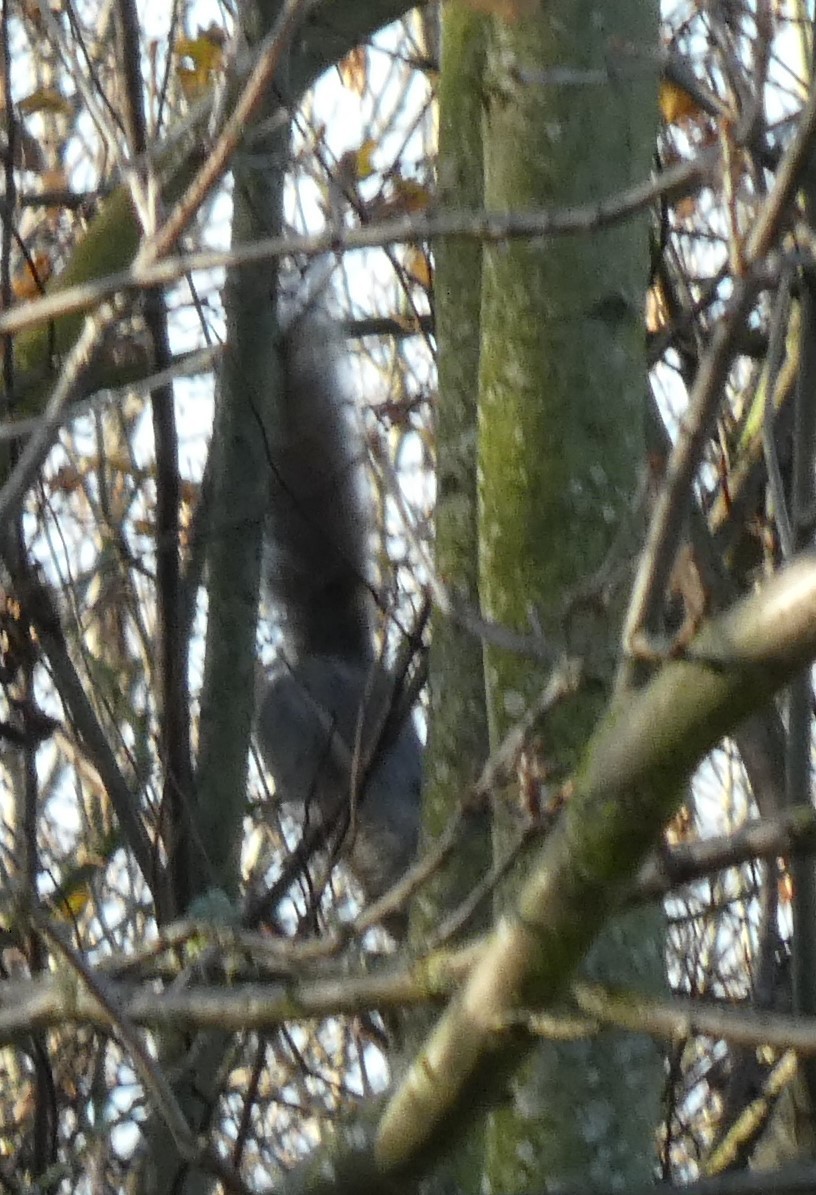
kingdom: Animalia
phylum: Chordata
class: Mammalia
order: Rodentia
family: Sciuridae
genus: Sciurus
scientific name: Sciurus carolinensis
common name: Eastern gray squirrel
